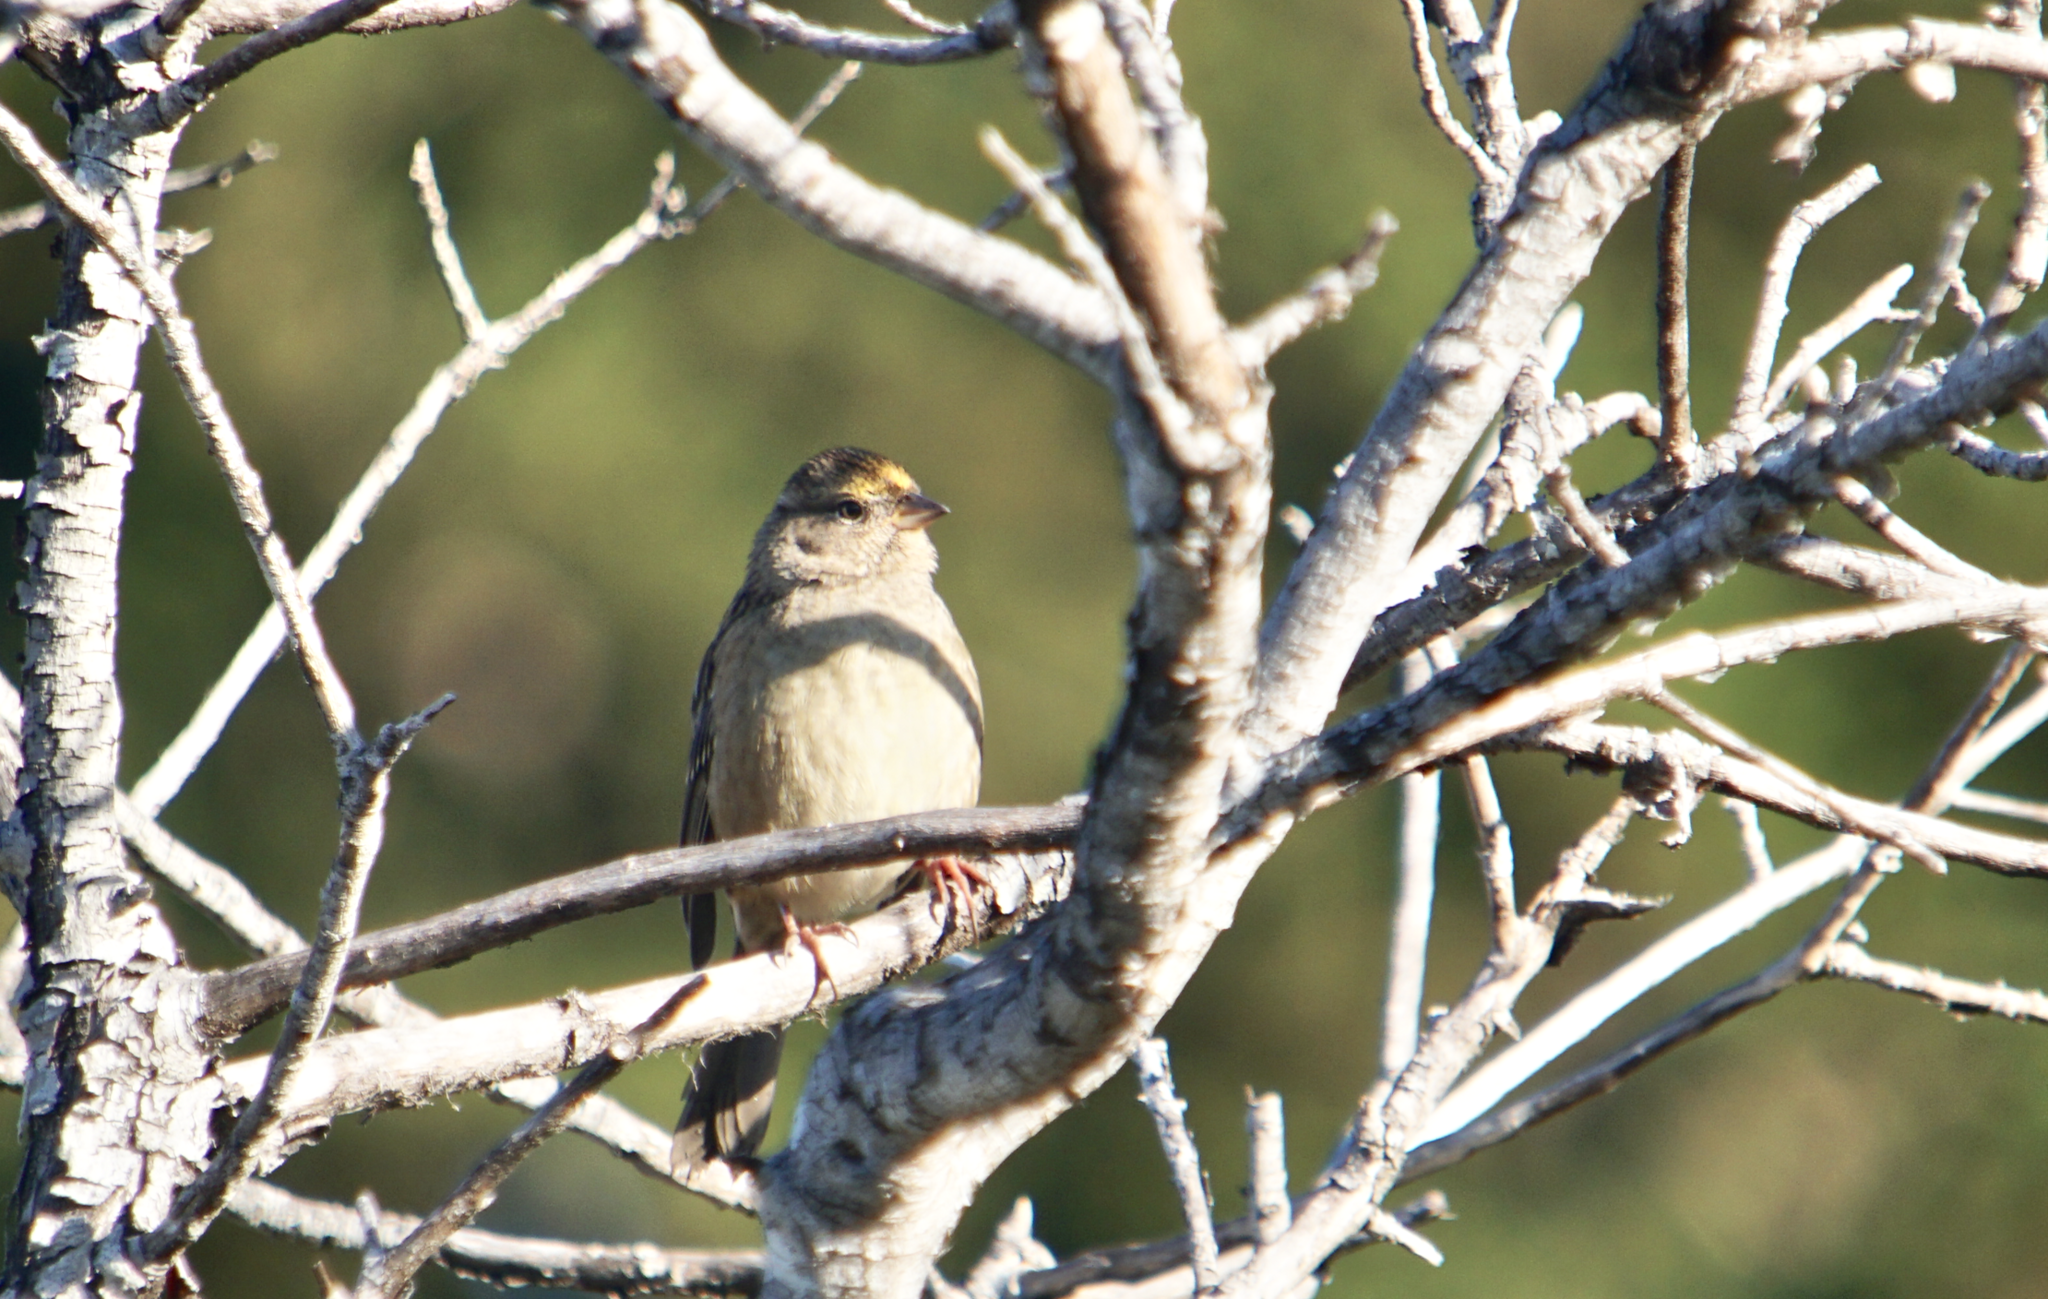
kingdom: Animalia
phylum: Chordata
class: Aves
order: Passeriformes
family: Passerellidae
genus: Zonotrichia
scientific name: Zonotrichia atricapilla
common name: Golden-crowned sparrow
